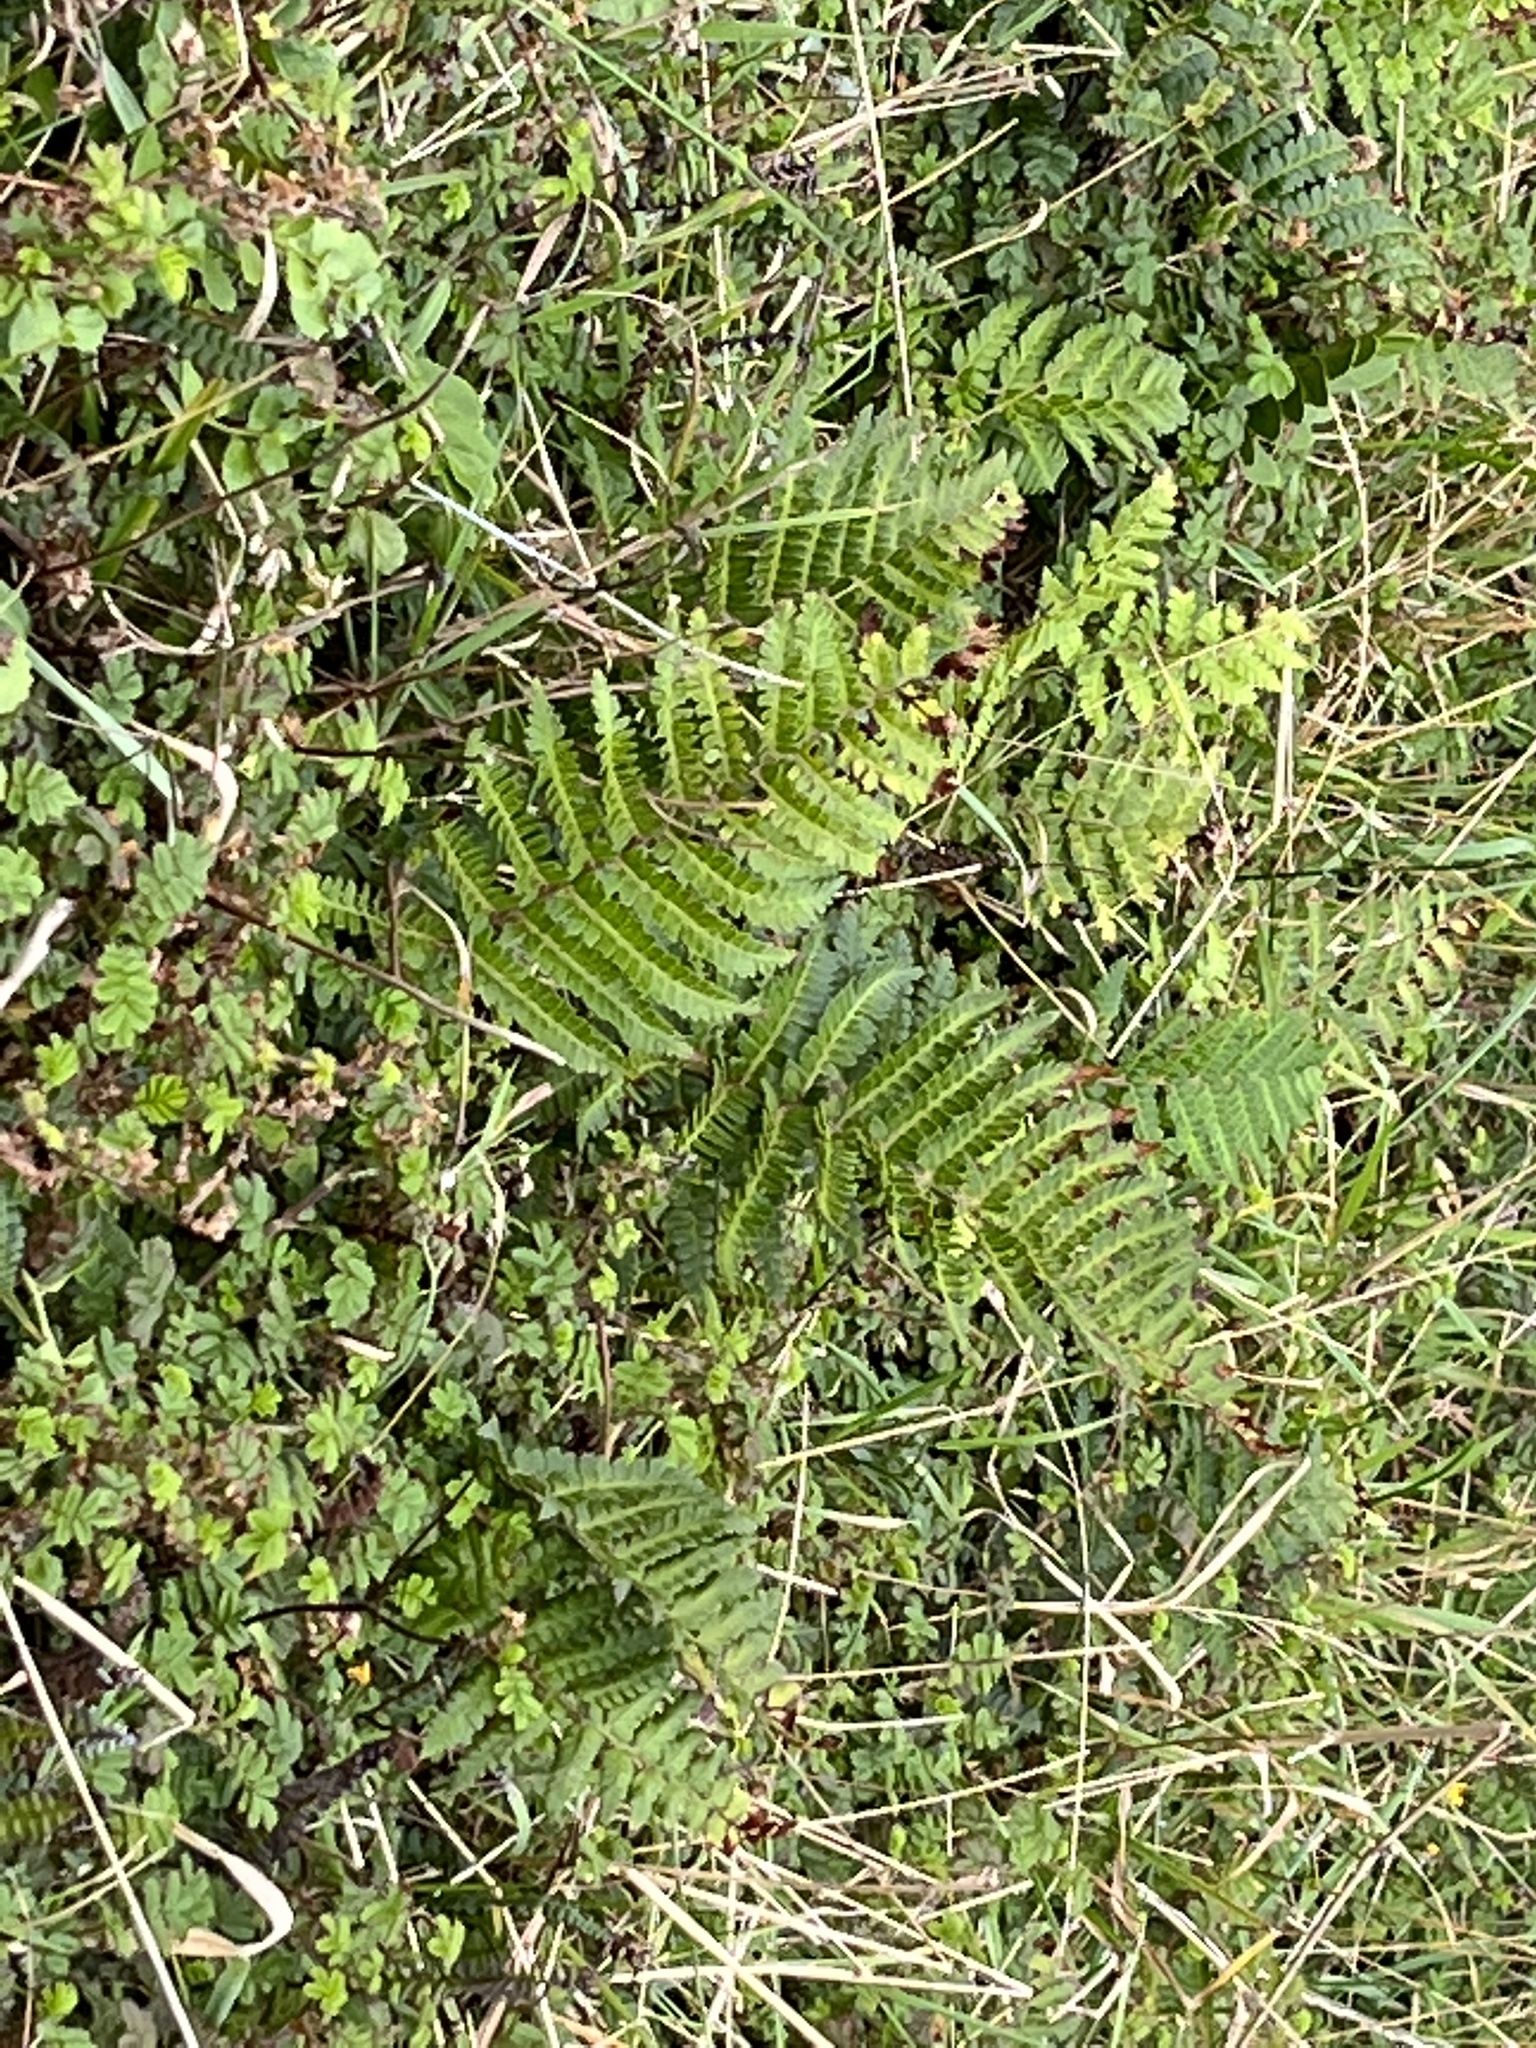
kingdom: Plantae
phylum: Tracheophyta
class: Polypodiopsida
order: Polypodiales
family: Dryopteridaceae
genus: Polystichum
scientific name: Polystichum vestitum
